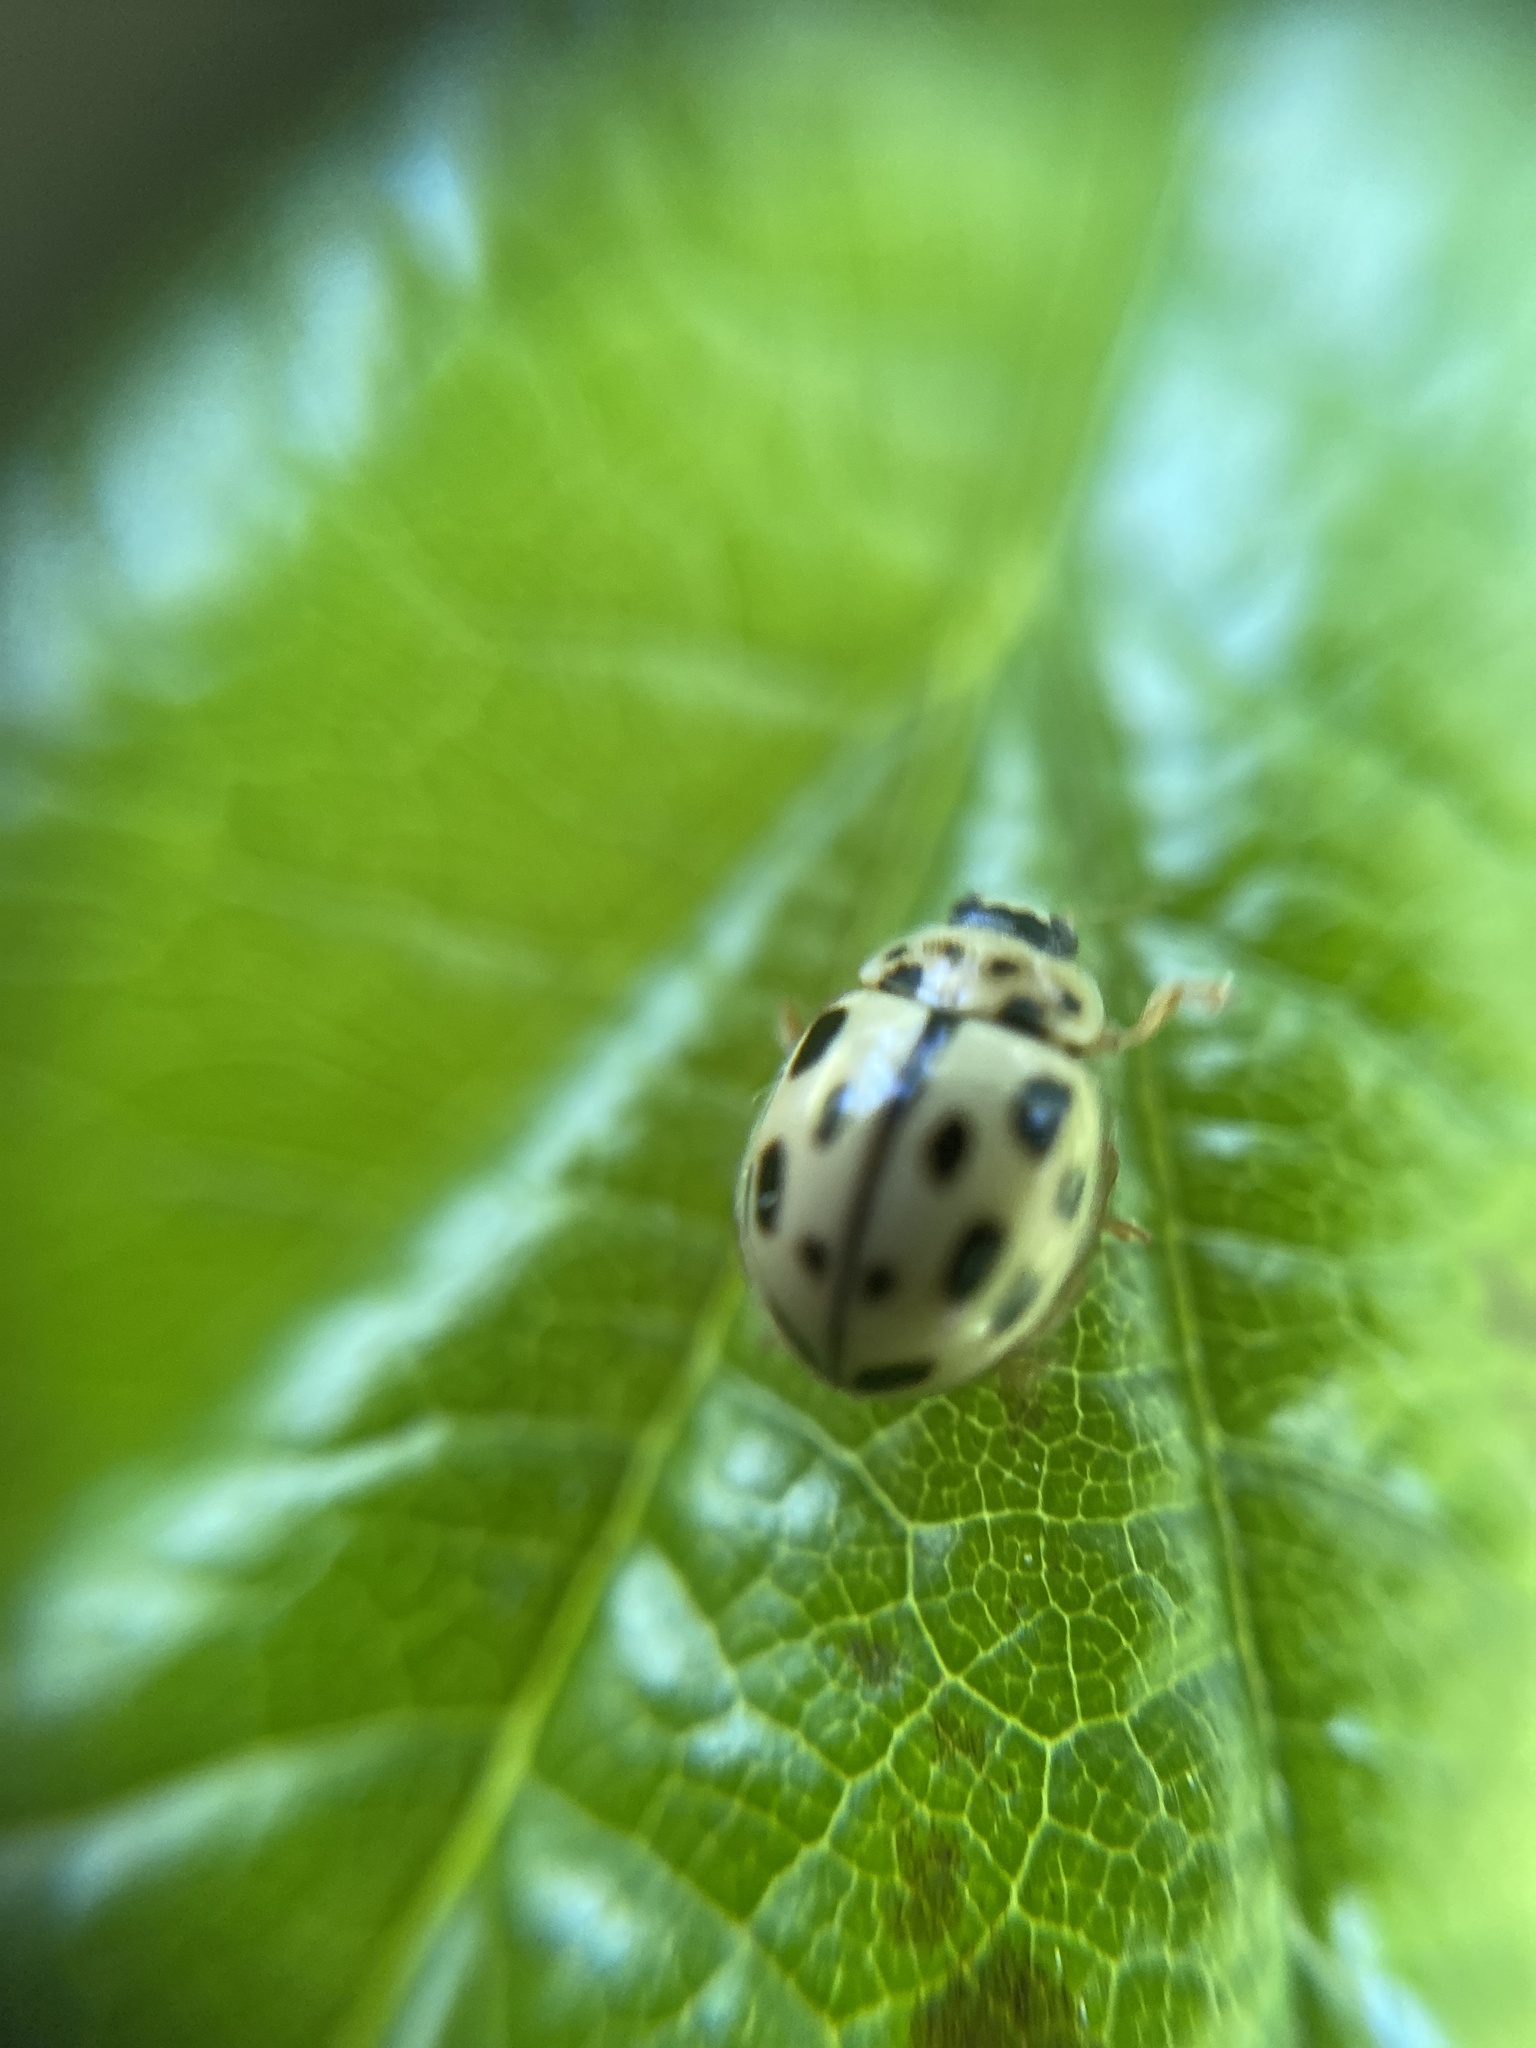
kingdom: Animalia
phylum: Arthropoda
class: Insecta
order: Coleoptera
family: Coccinellidae
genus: Propylaea
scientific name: Propylaea quatuordecimpunctata
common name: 14-spotted ladybird beetle
